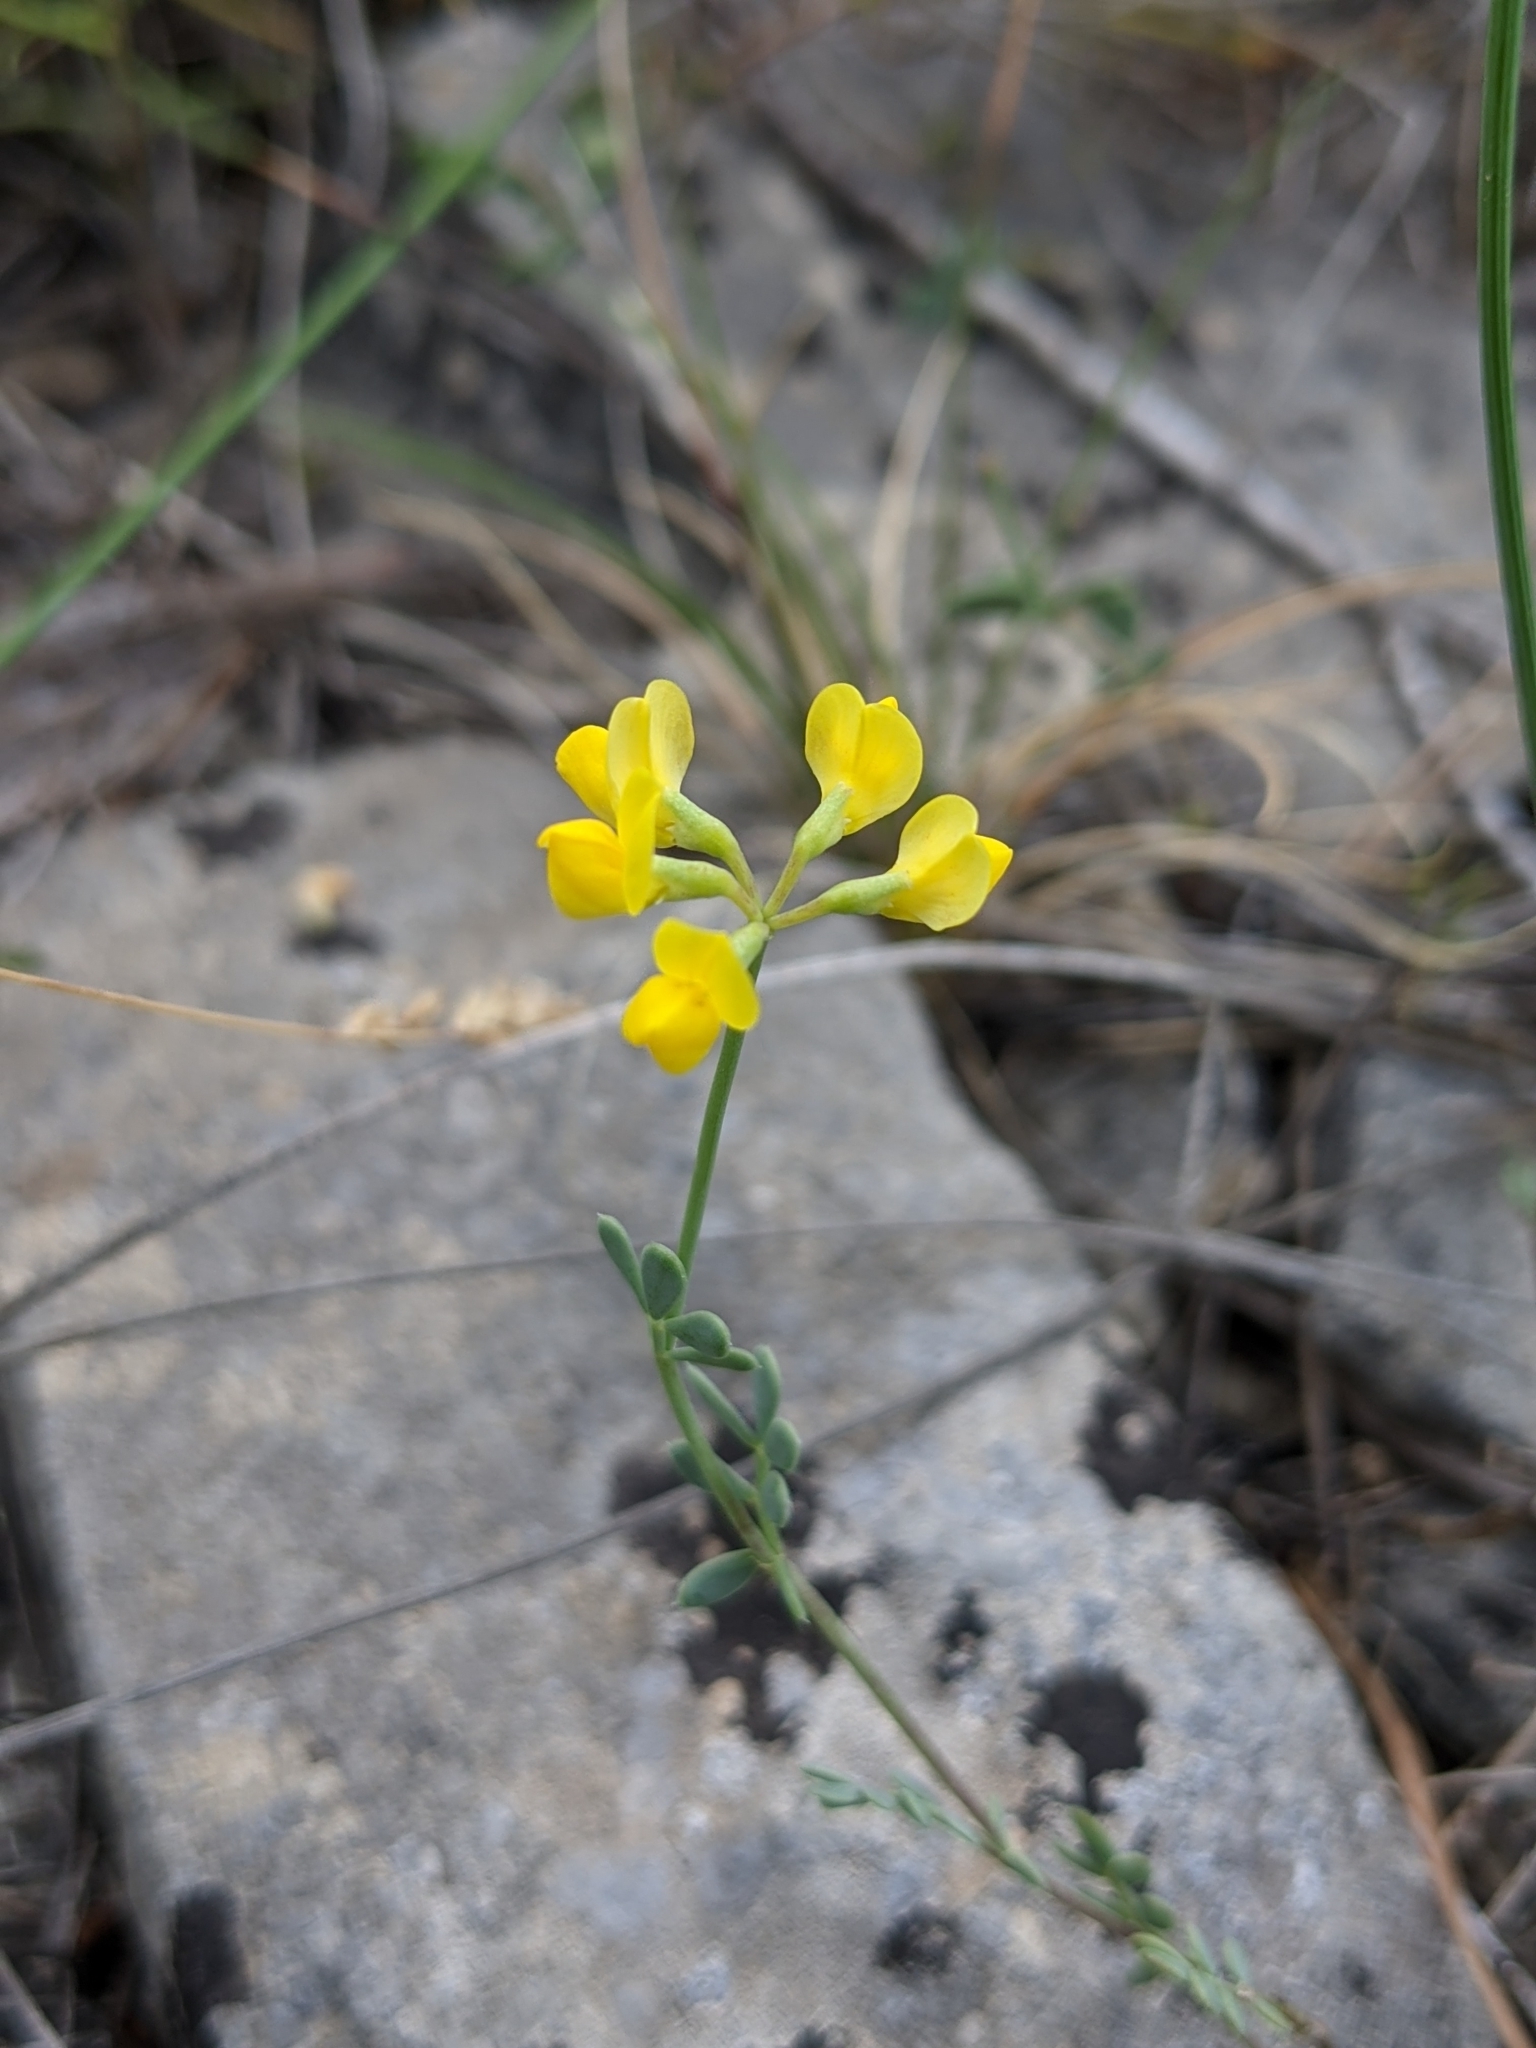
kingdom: Plantae
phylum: Tracheophyta
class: Magnoliopsida
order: Fabales
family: Fabaceae
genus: Coronilla
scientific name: Coronilla minima
